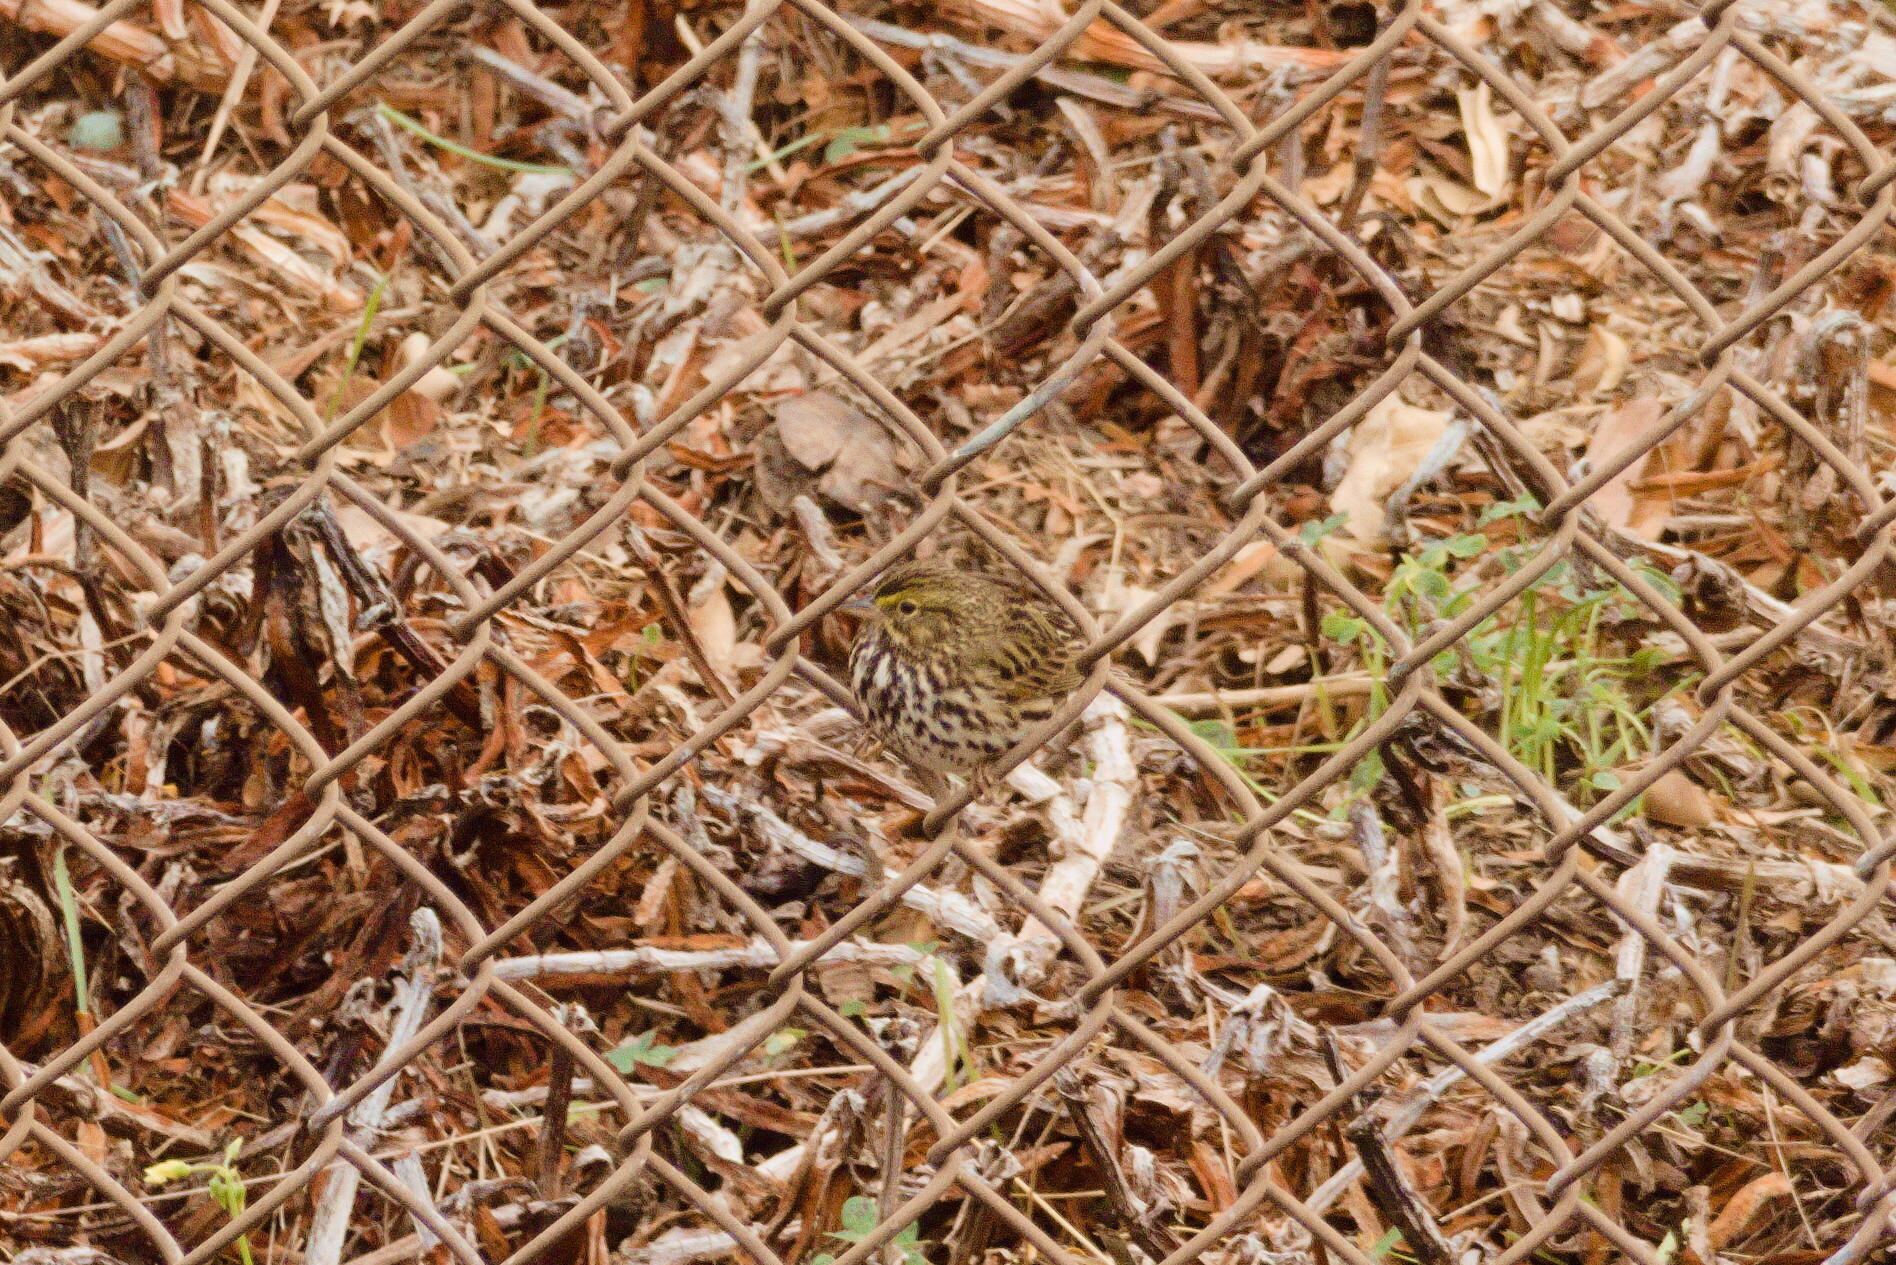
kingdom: Animalia
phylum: Chordata
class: Aves
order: Passeriformes
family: Passerellidae
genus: Passerculus
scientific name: Passerculus sandwichensis
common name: Savannah sparrow
